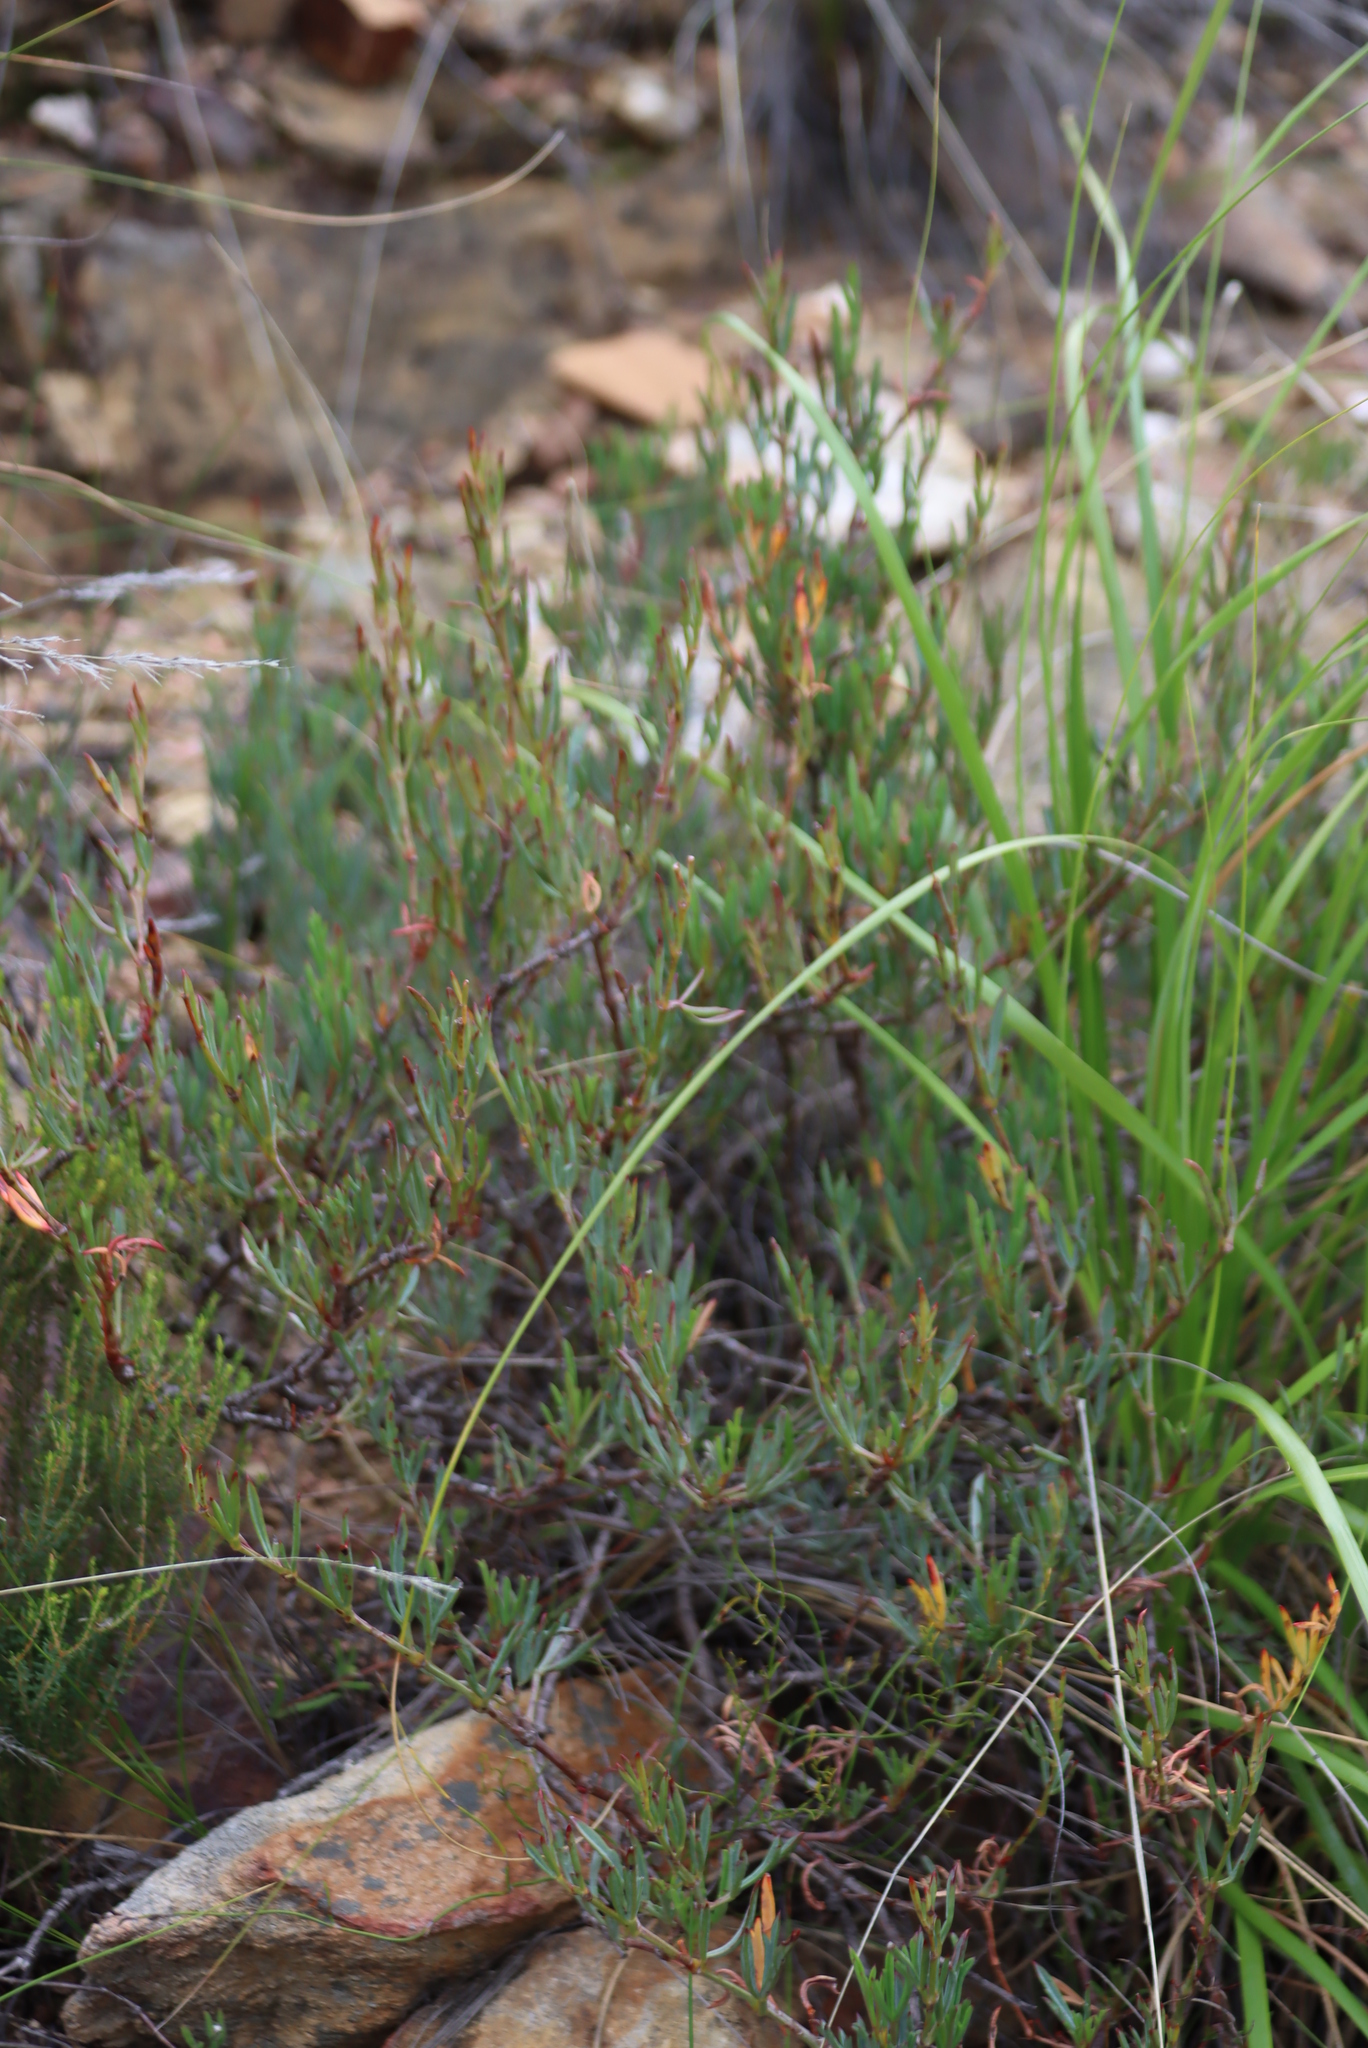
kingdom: Plantae
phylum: Tracheophyta
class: Magnoliopsida
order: Geraniales
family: Geraniaceae
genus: Pelargonium
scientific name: Pelargonium laevigatum
